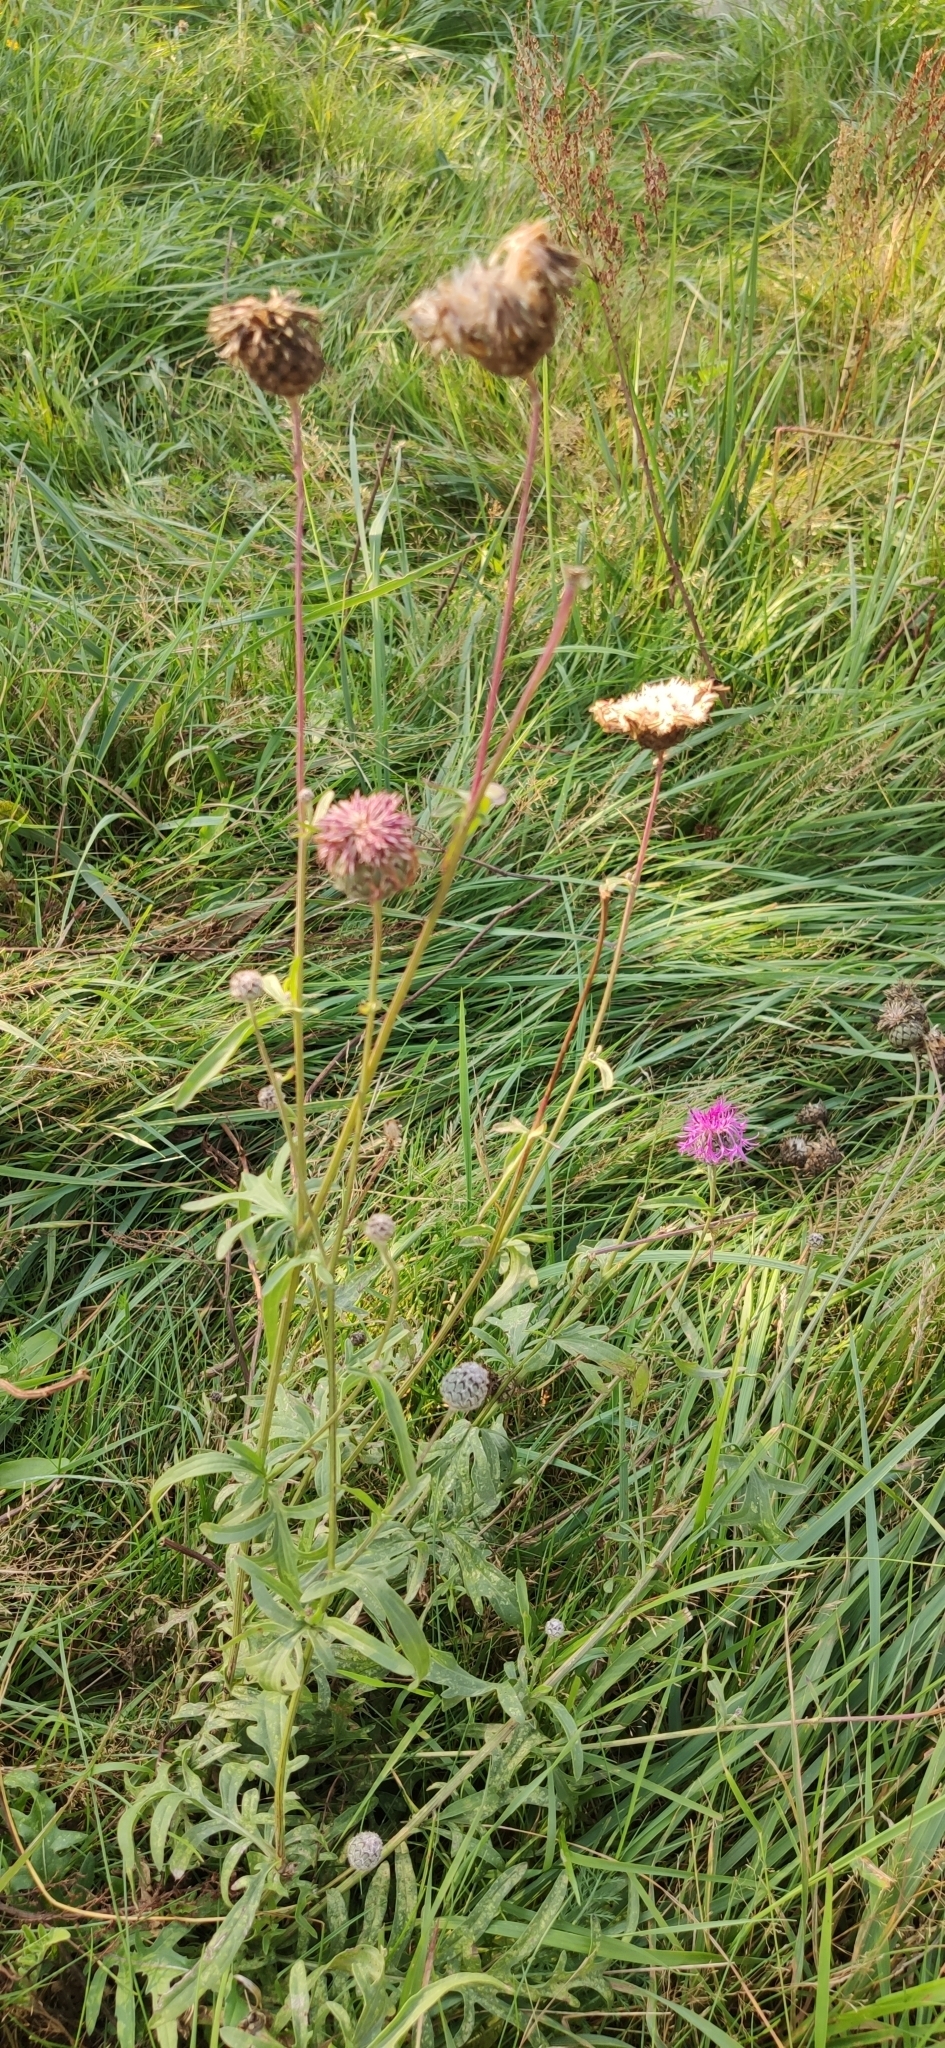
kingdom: Plantae
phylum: Tracheophyta
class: Magnoliopsida
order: Asterales
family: Asteraceae
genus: Centaurea
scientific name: Centaurea scabiosa
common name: Greater knapweed
